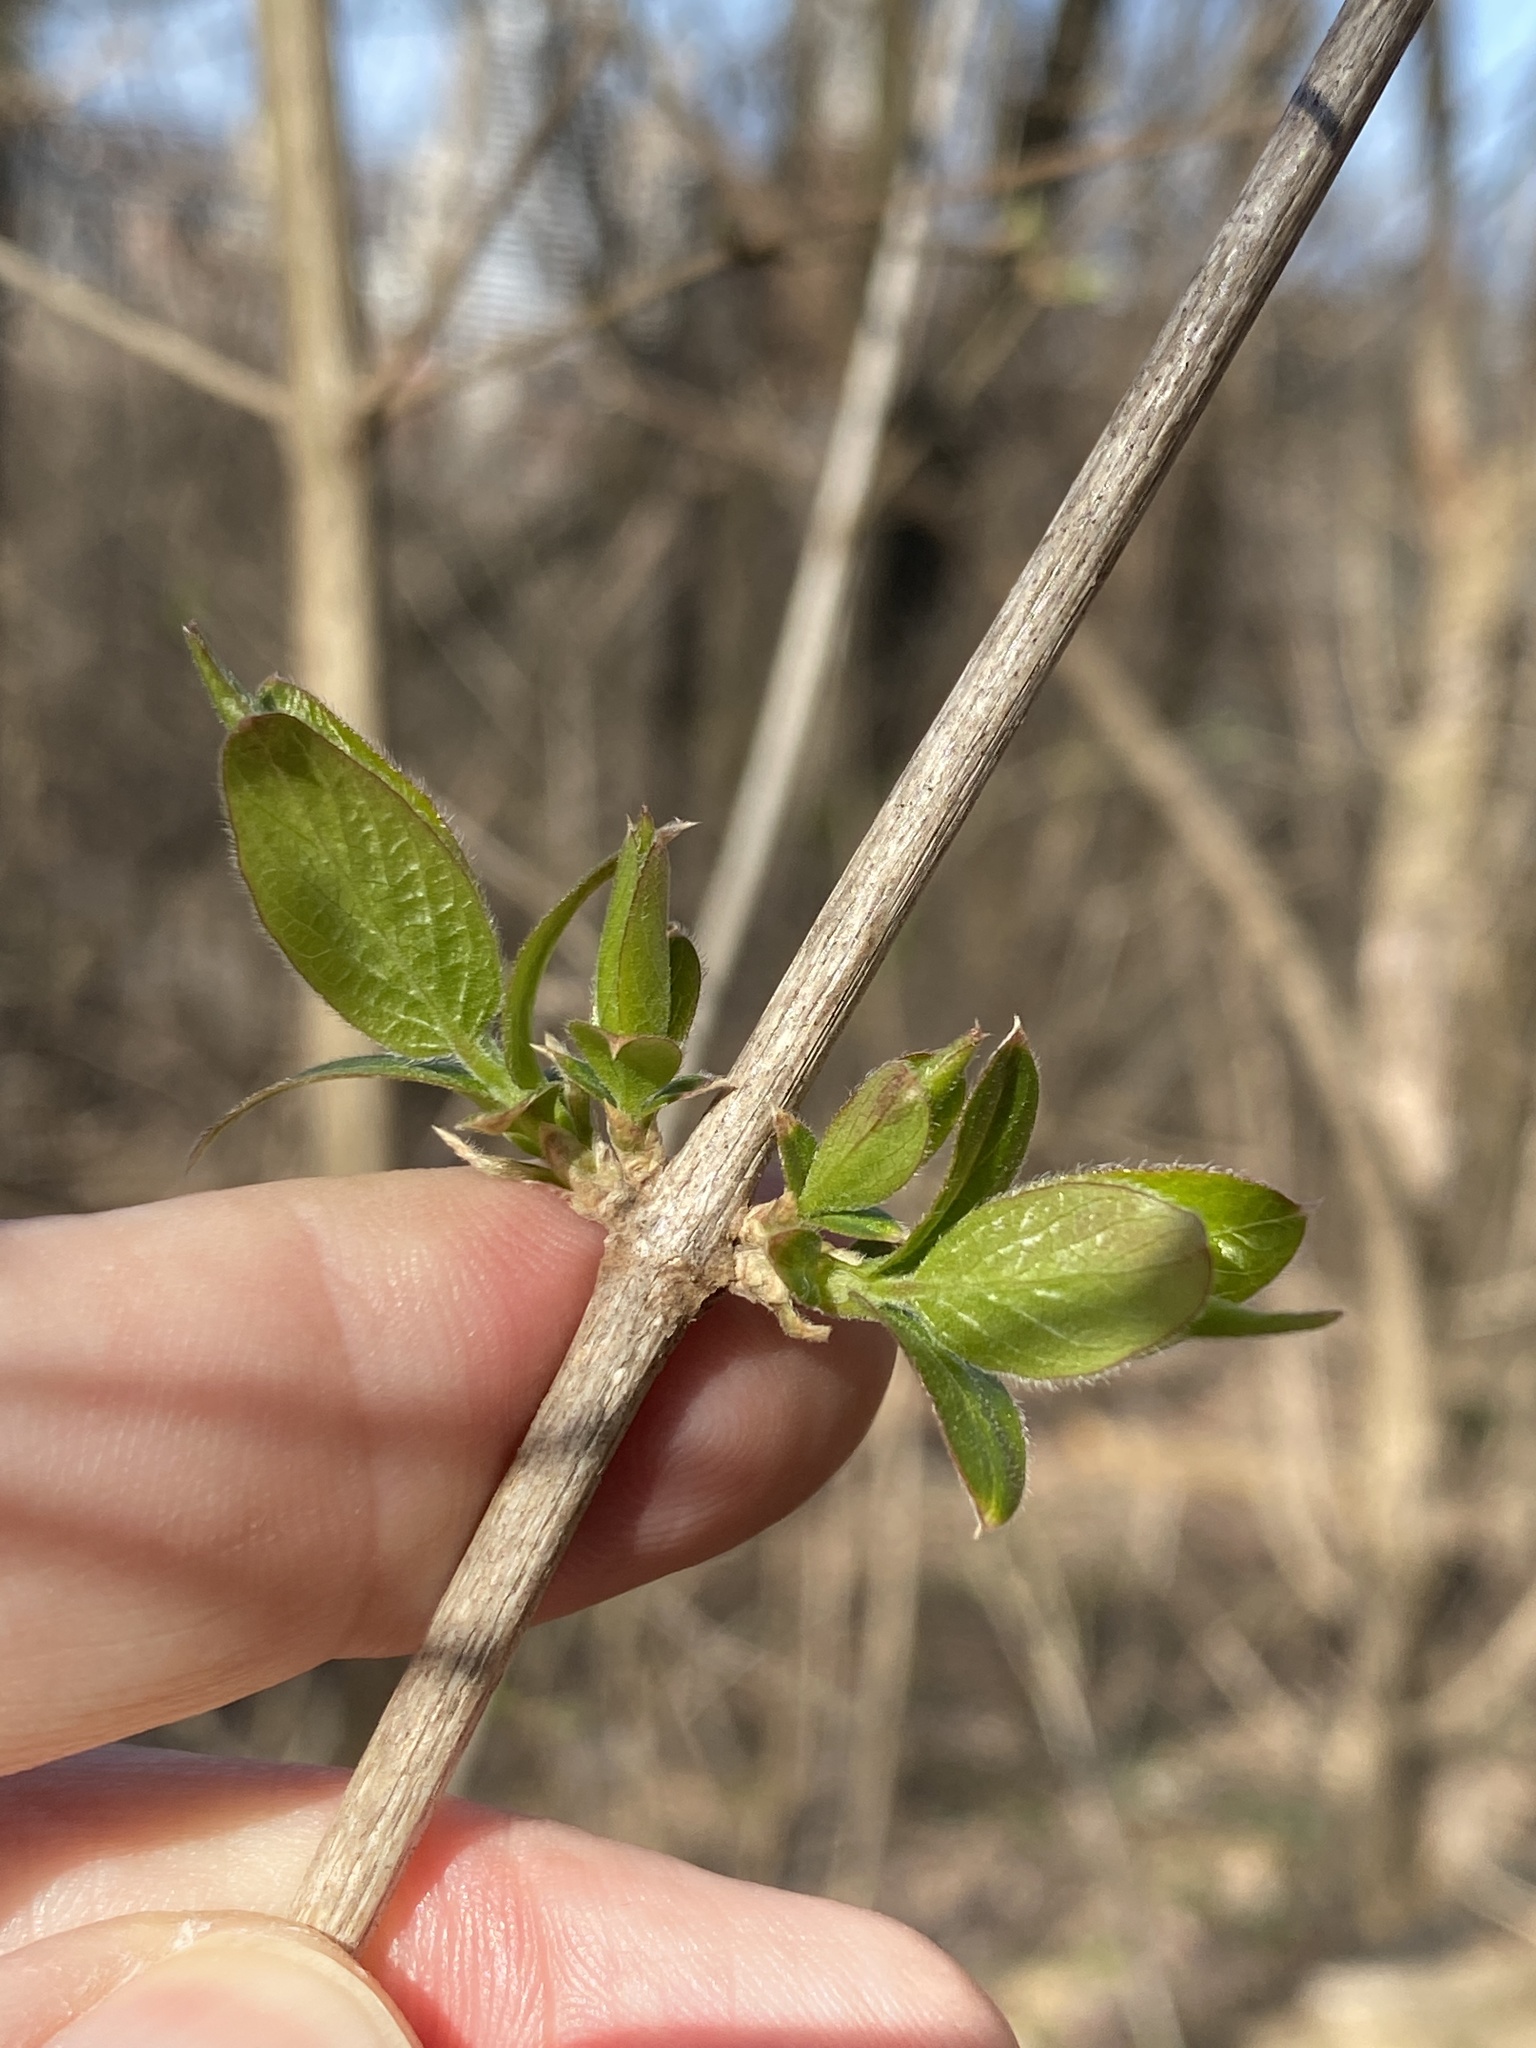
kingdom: Plantae
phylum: Tracheophyta
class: Magnoliopsida
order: Dipsacales
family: Caprifoliaceae
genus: Lonicera
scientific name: Lonicera maackii
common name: Amur honeysuckle
